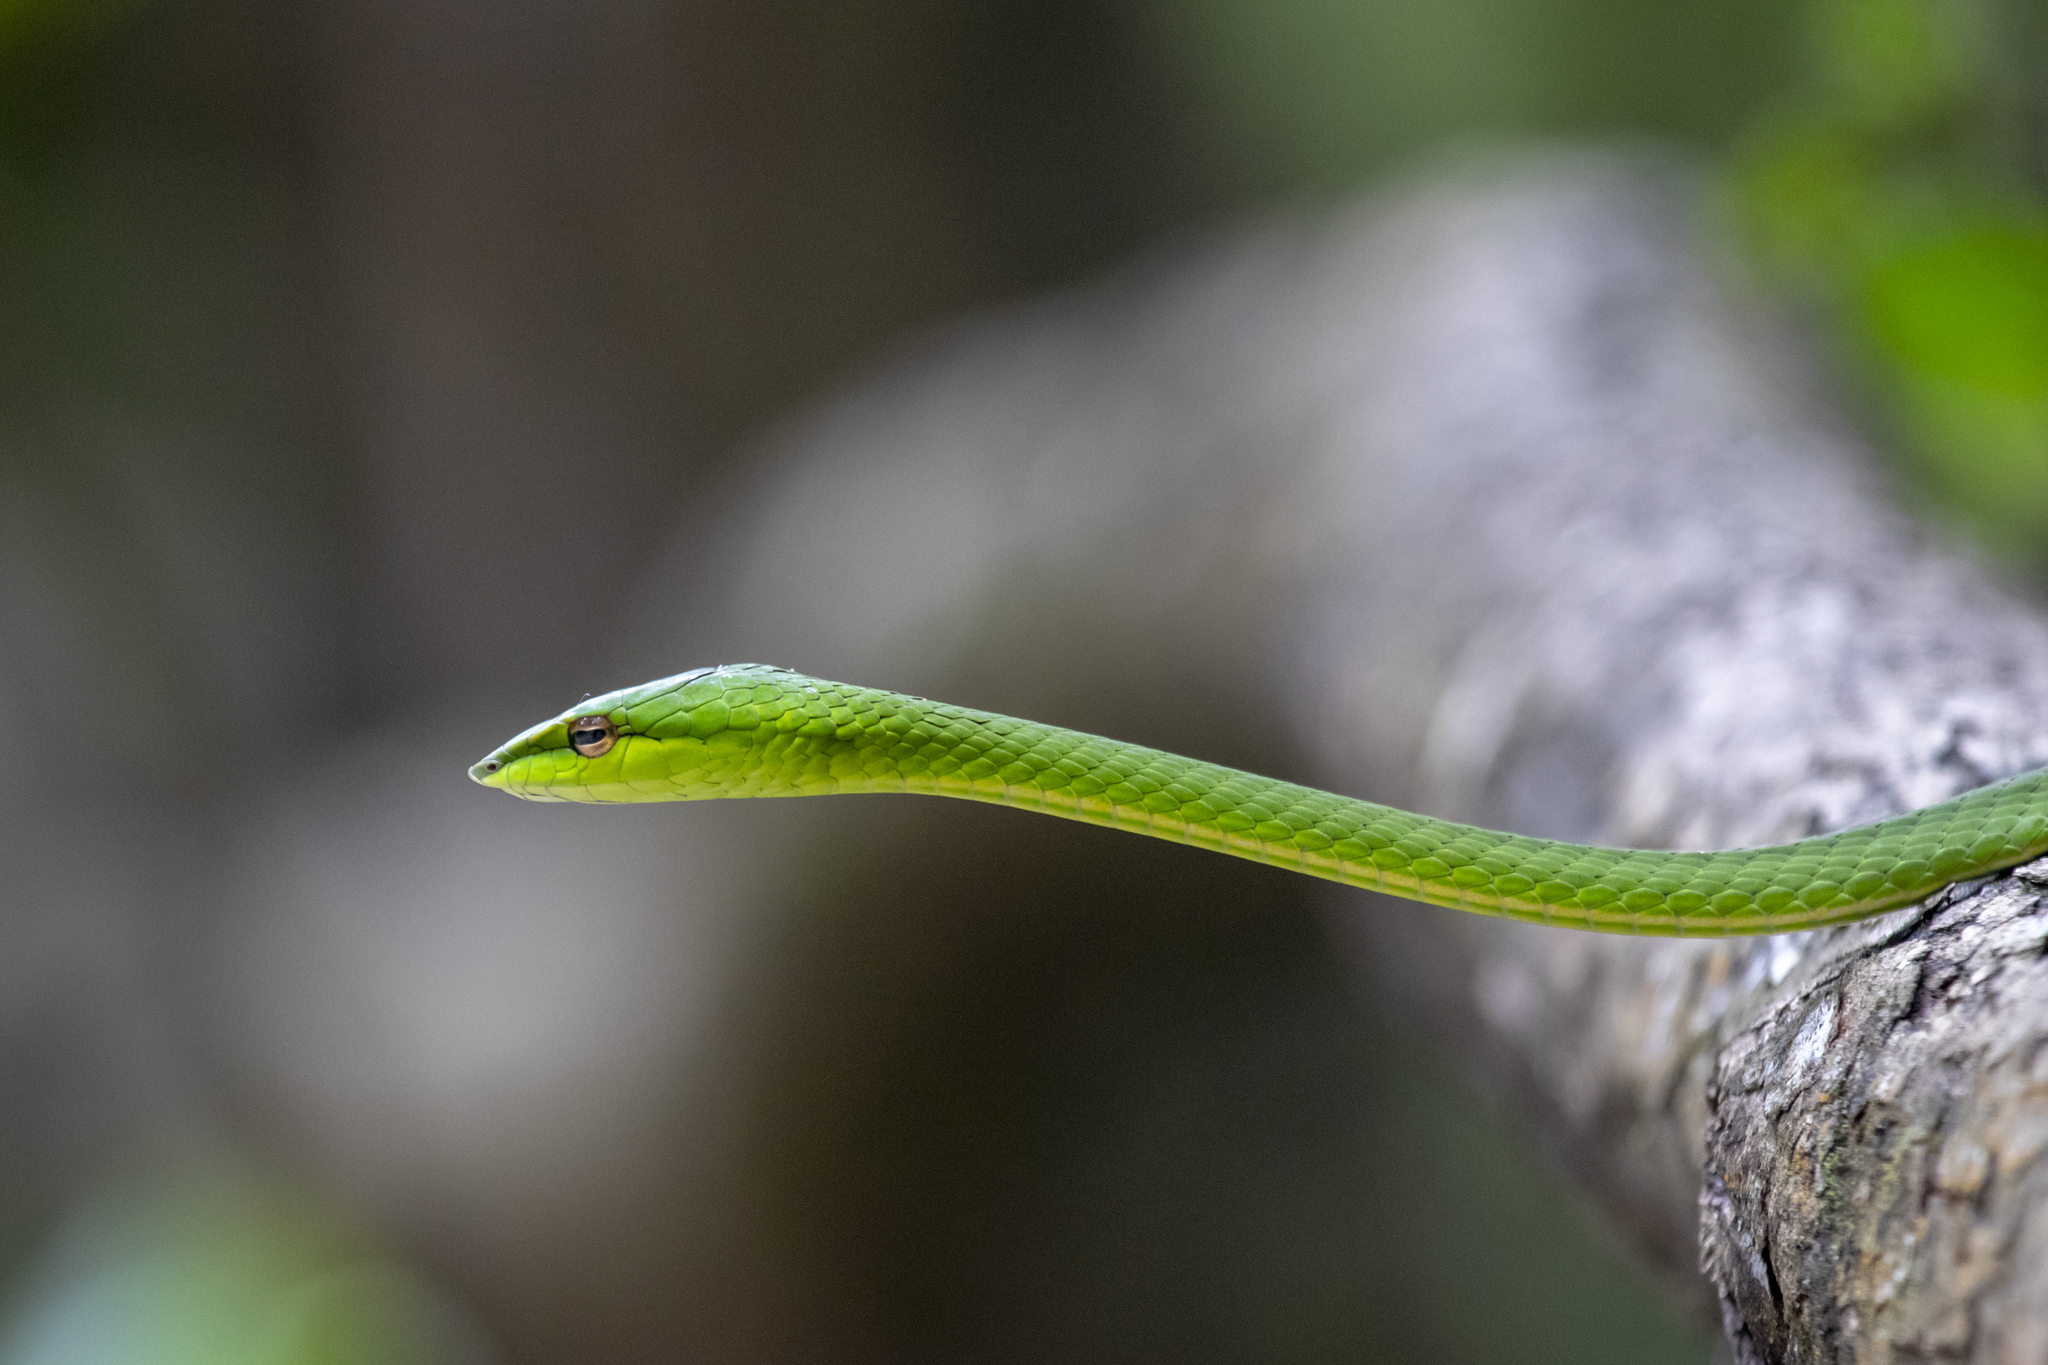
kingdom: Animalia
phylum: Chordata
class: Squamata
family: Colubridae
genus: Ahaetulla
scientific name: Ahaetulla travancorica
